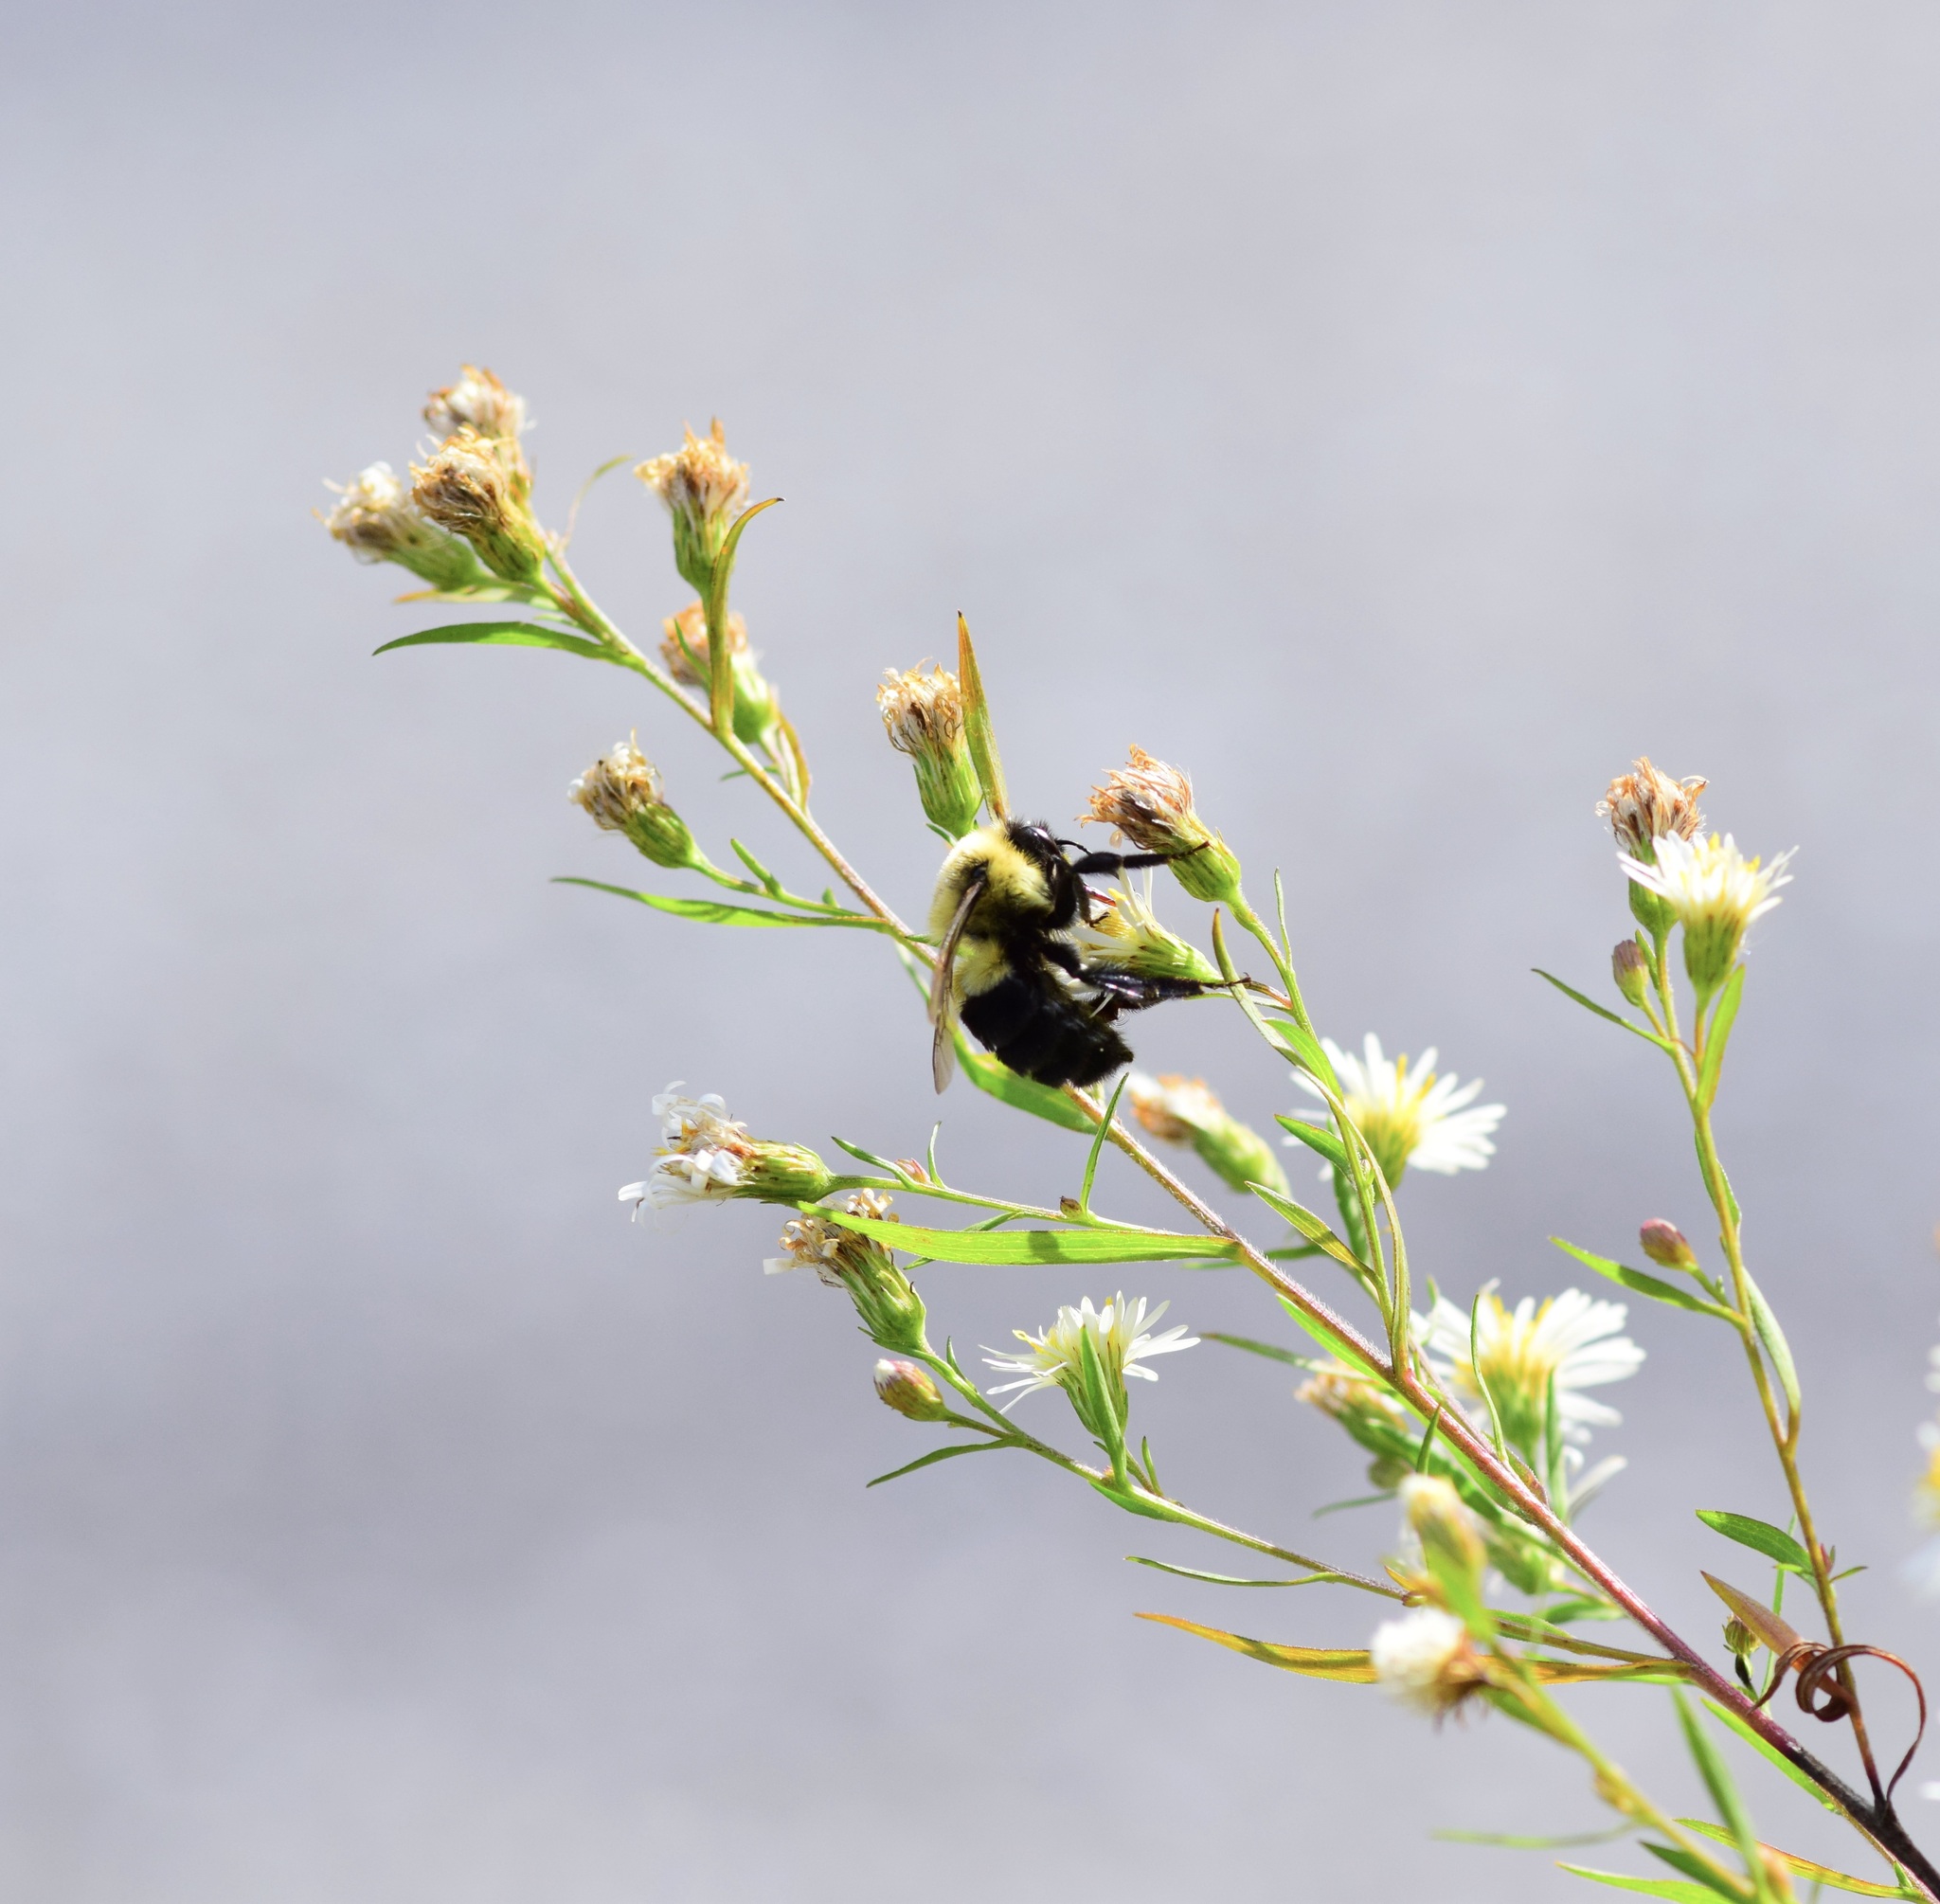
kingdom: Animalia
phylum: Arthropoda
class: Insecta
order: Hymenoptera
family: Apidae
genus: Bombus
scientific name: Bombus impatiens
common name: Common eastern bumble bee
